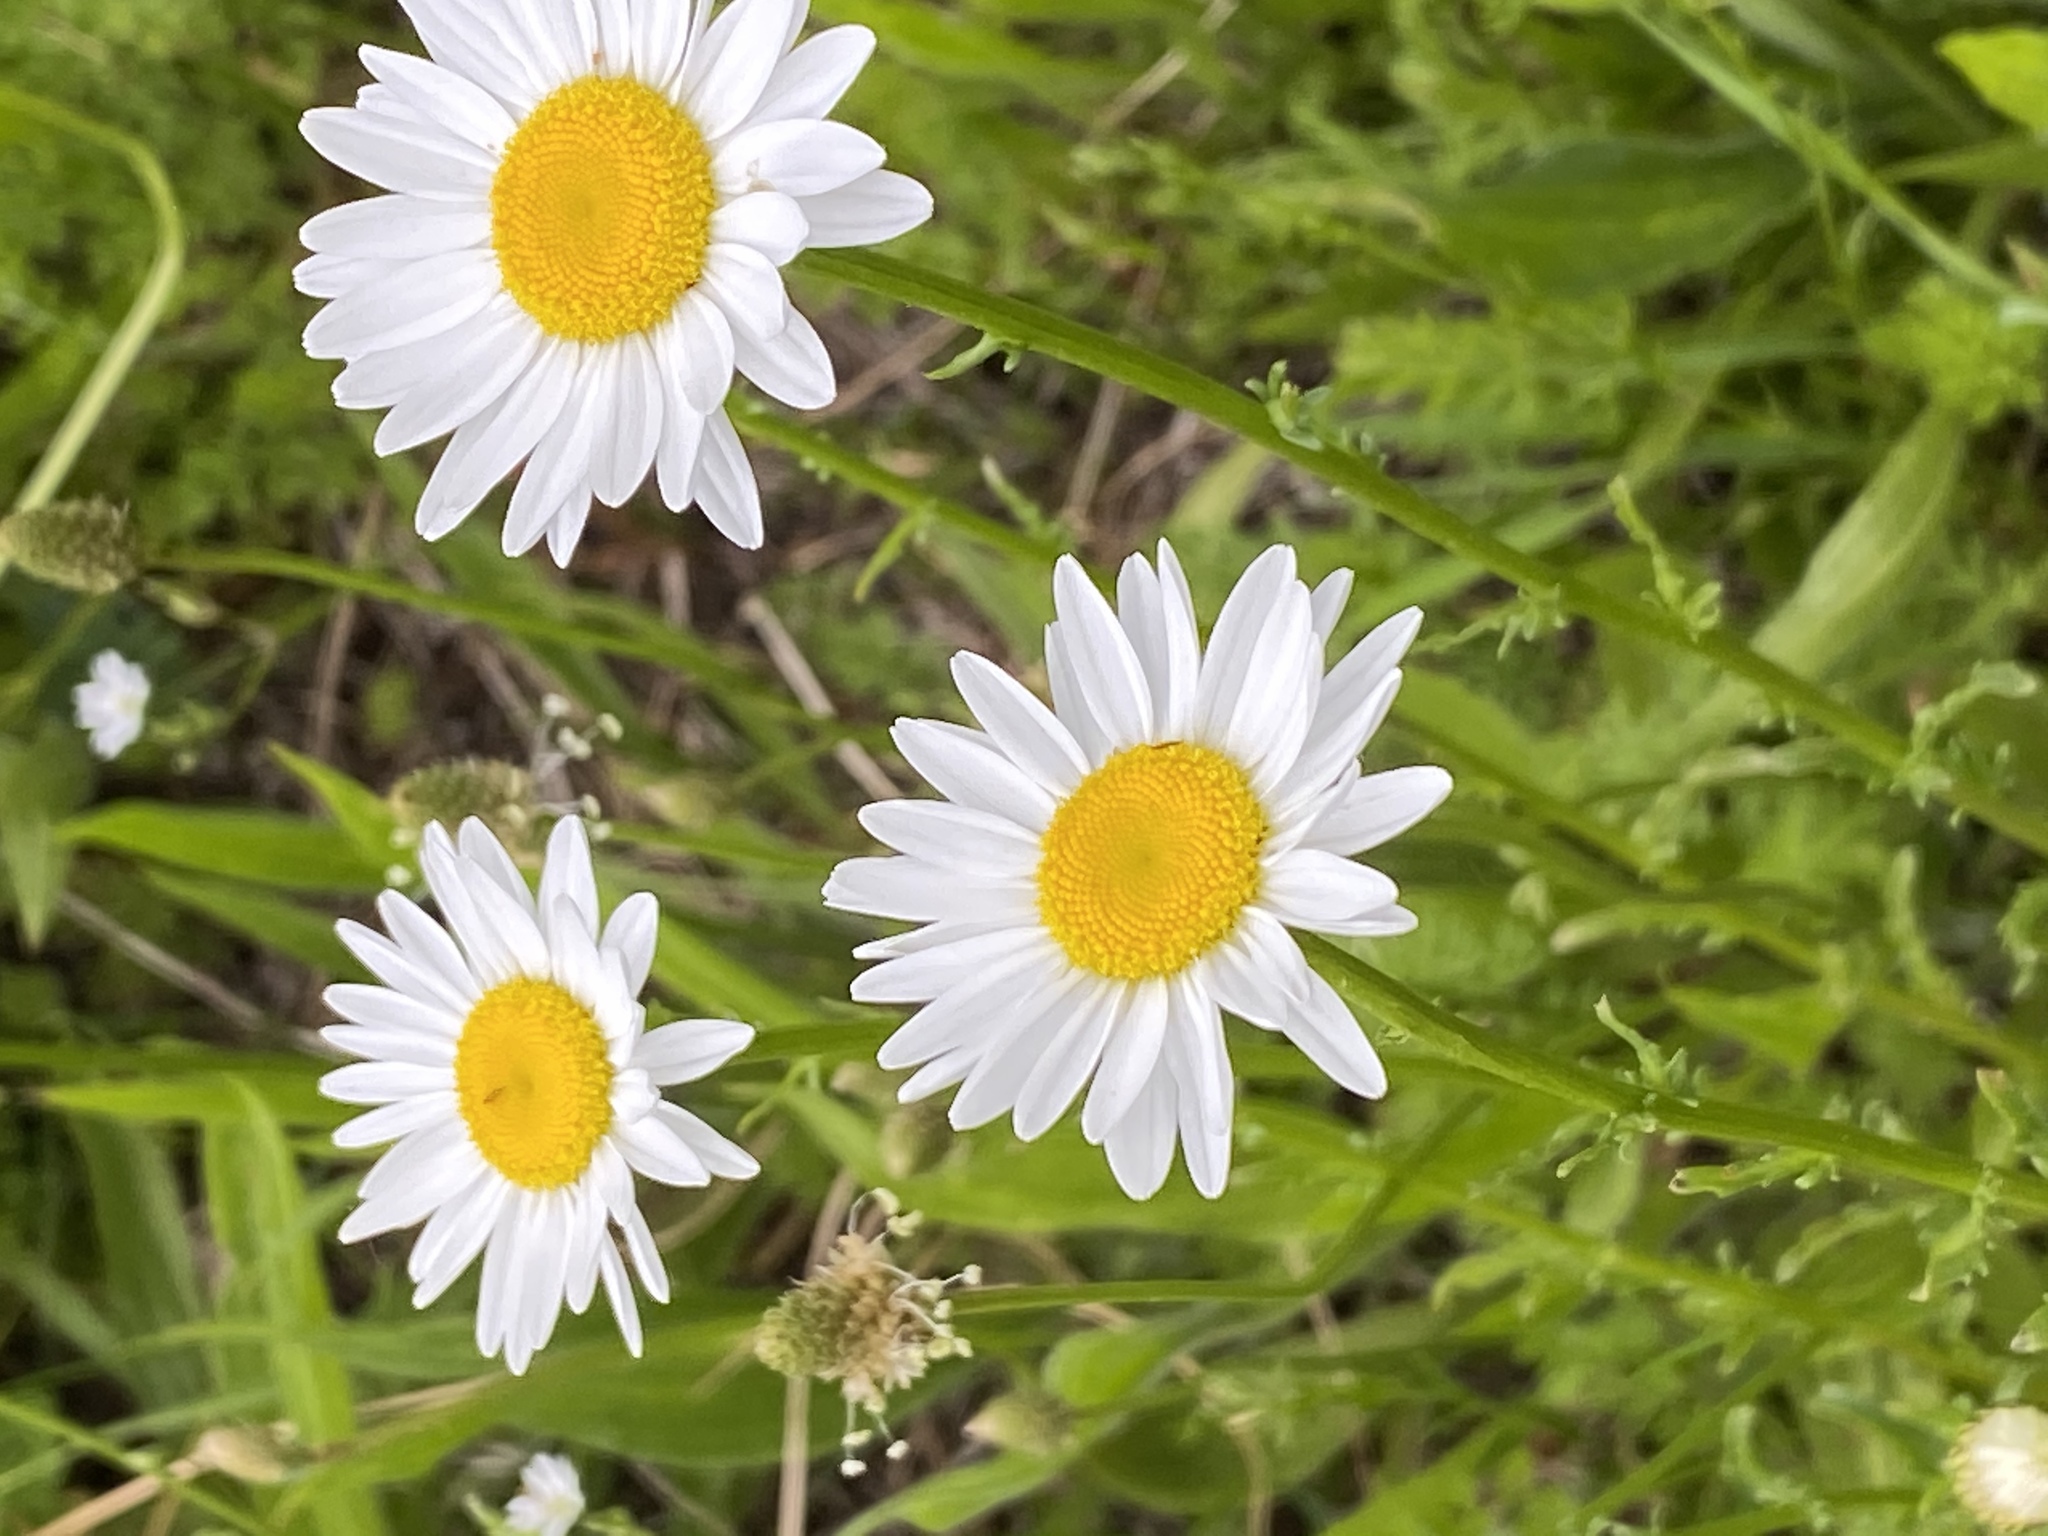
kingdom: Plantae
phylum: Tracheophyta
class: Magnoliopsida
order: Asterales
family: Asteraceae
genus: Leucanthemum
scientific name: Leucanthemum vulgare
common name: Oxeye daisy
